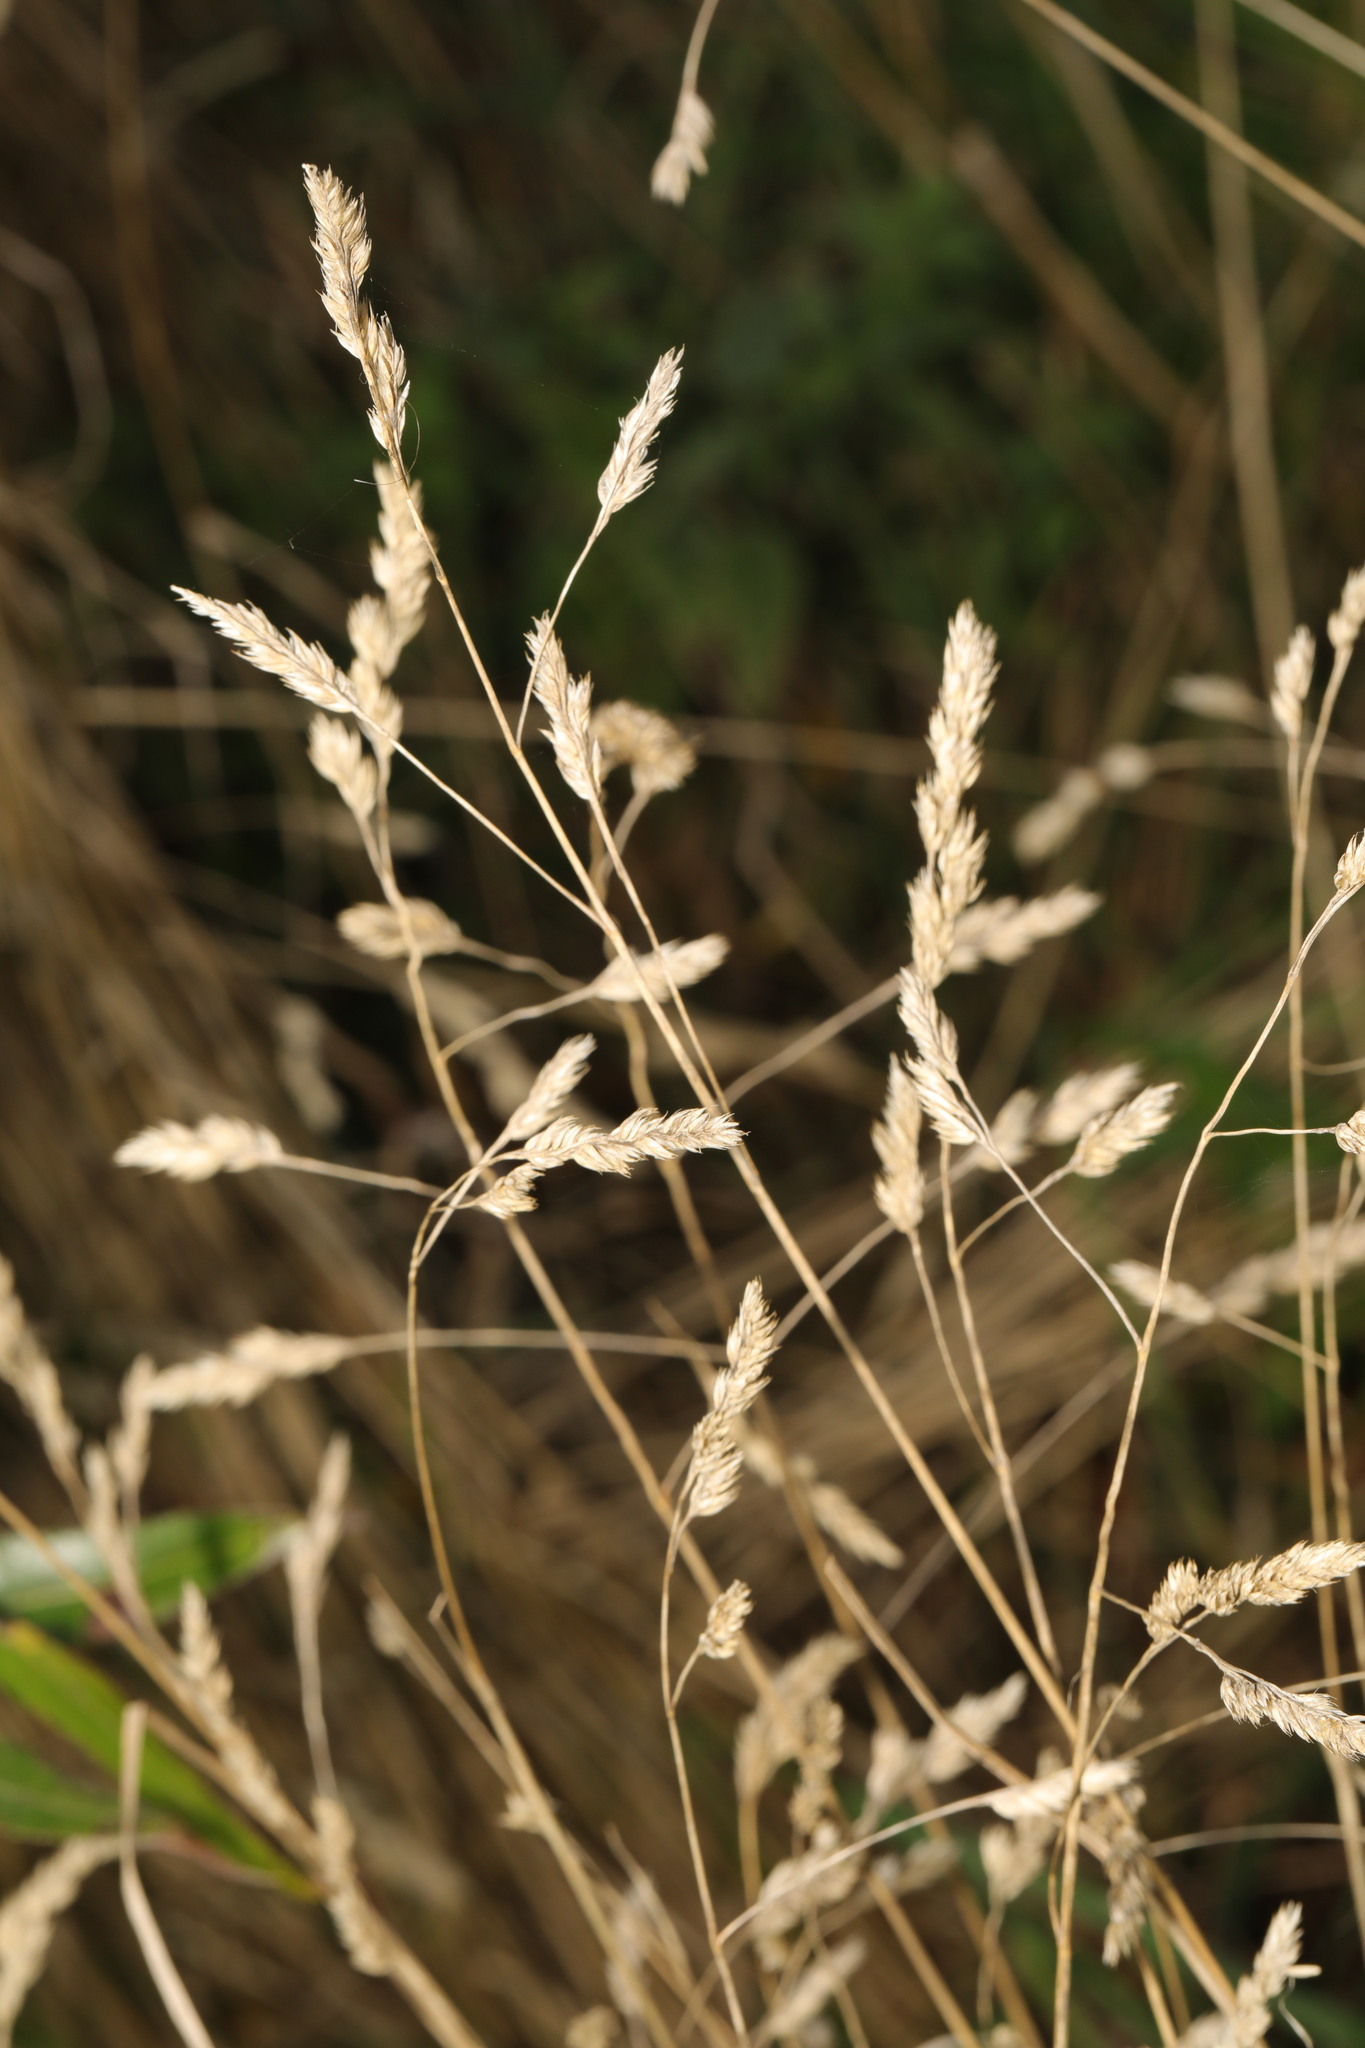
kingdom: Plantae
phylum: Tracheophyta
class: Liliopsida
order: Poales
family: Poaceae
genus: Dactylis
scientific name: Dactylis glomerata
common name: Orchardgrass
